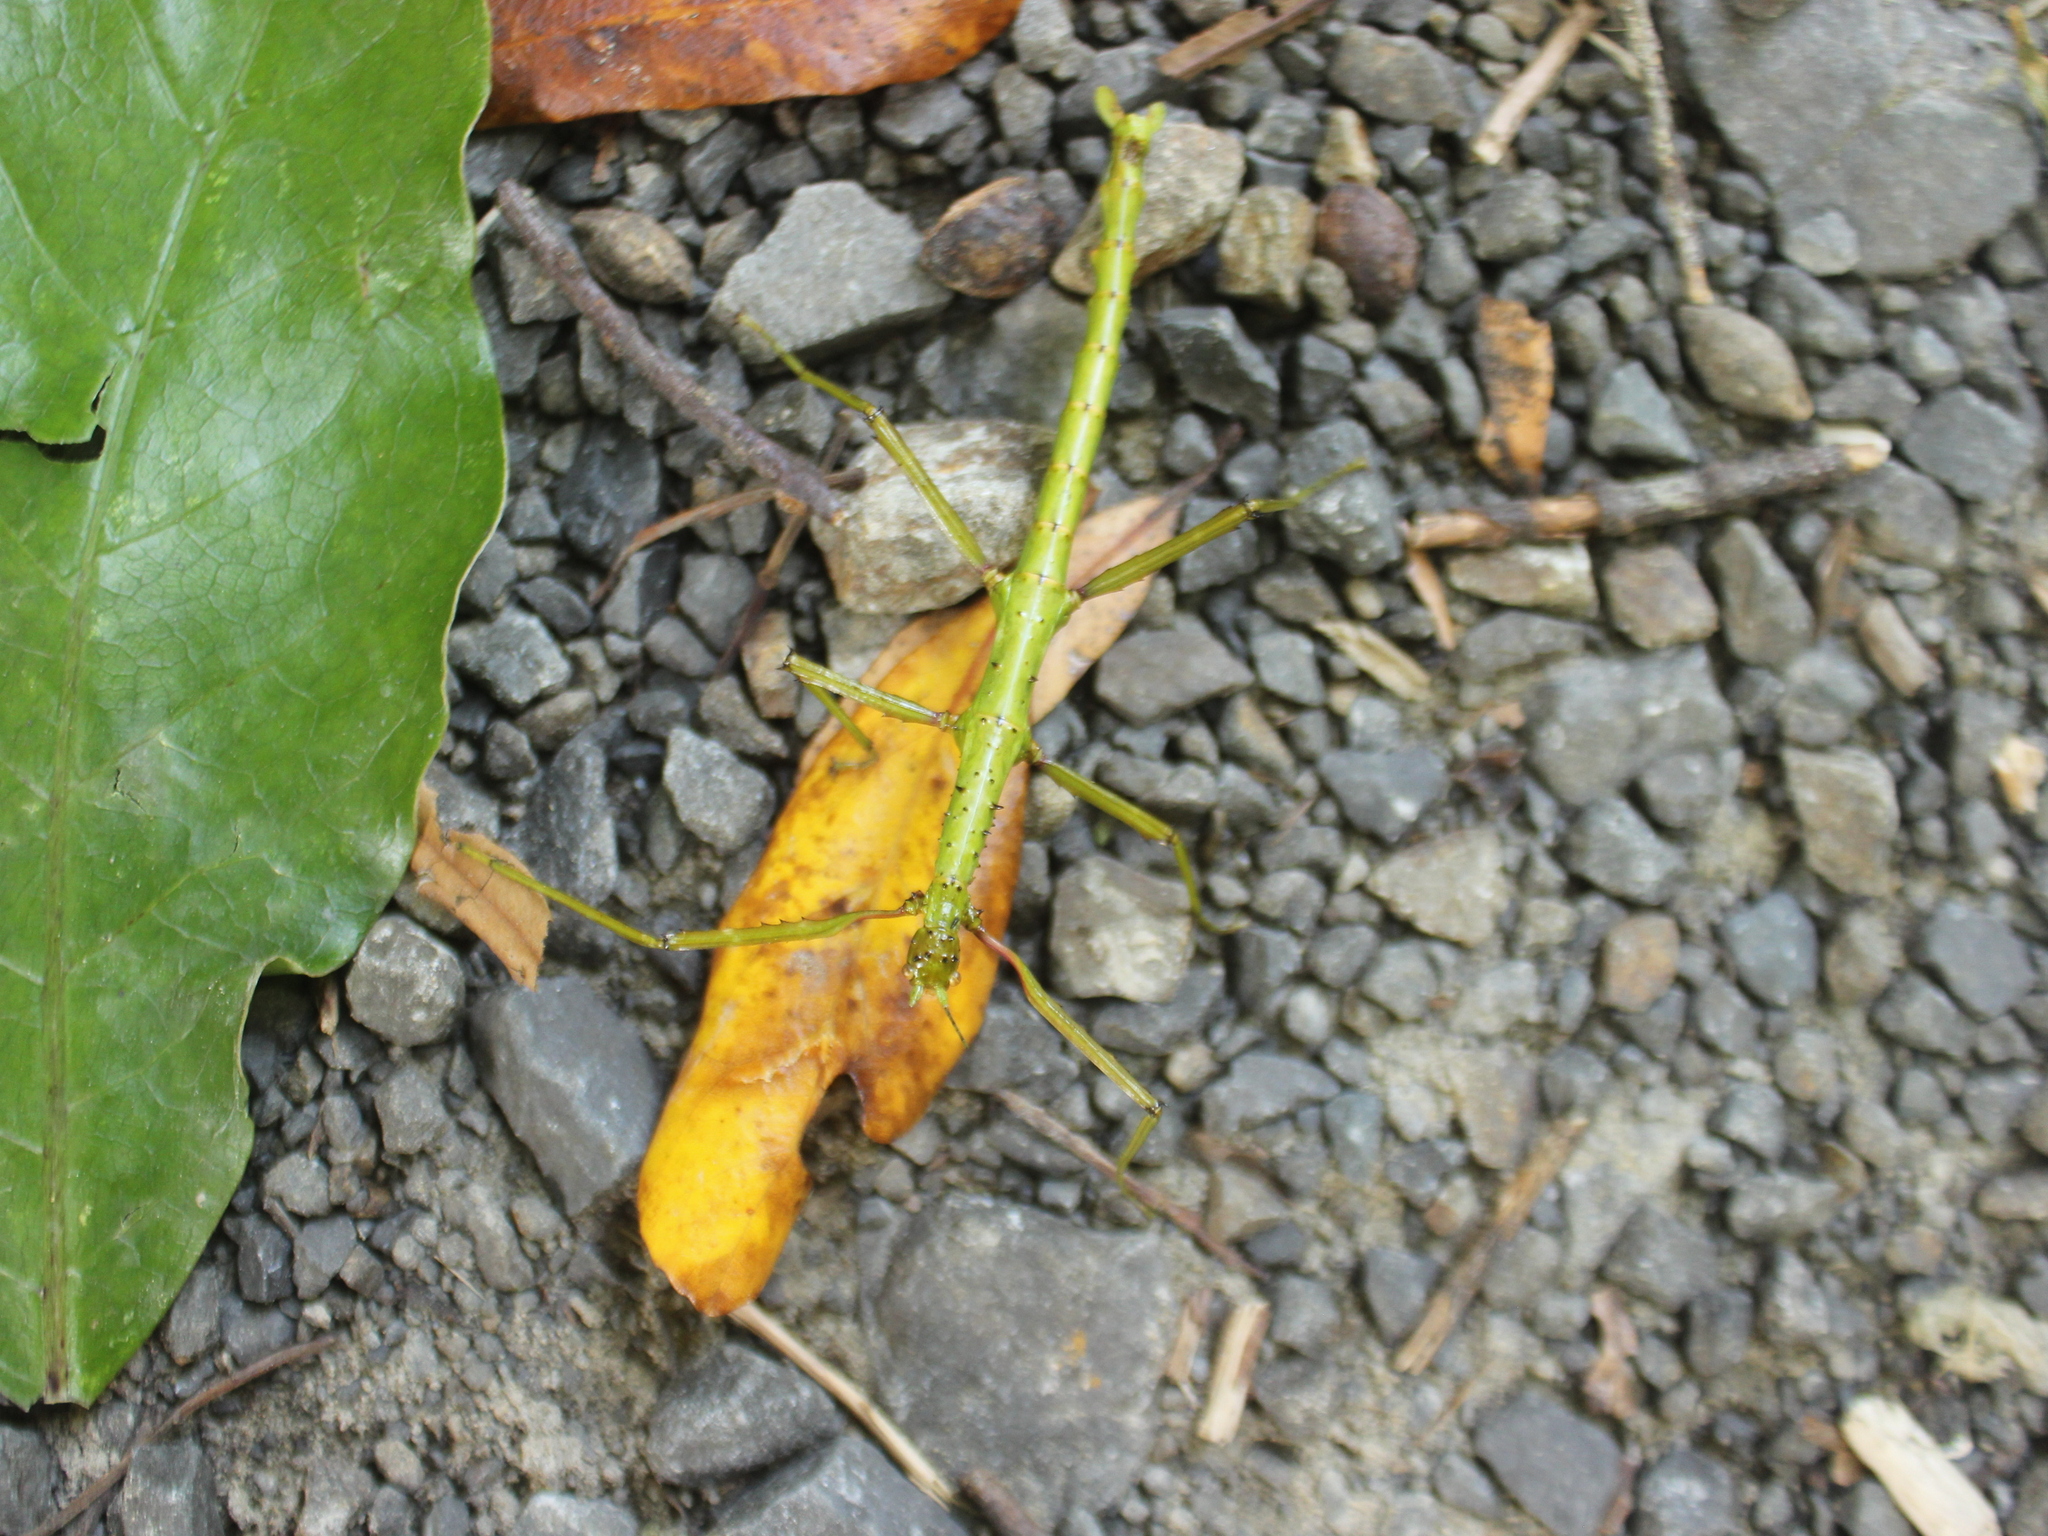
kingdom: Animalia
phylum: Arthropoda
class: Insecta
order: Phasmida
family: Phasmatidae
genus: Acanthoxyla
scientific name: Acanthoxyla prasina
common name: Black-spined stick insect
